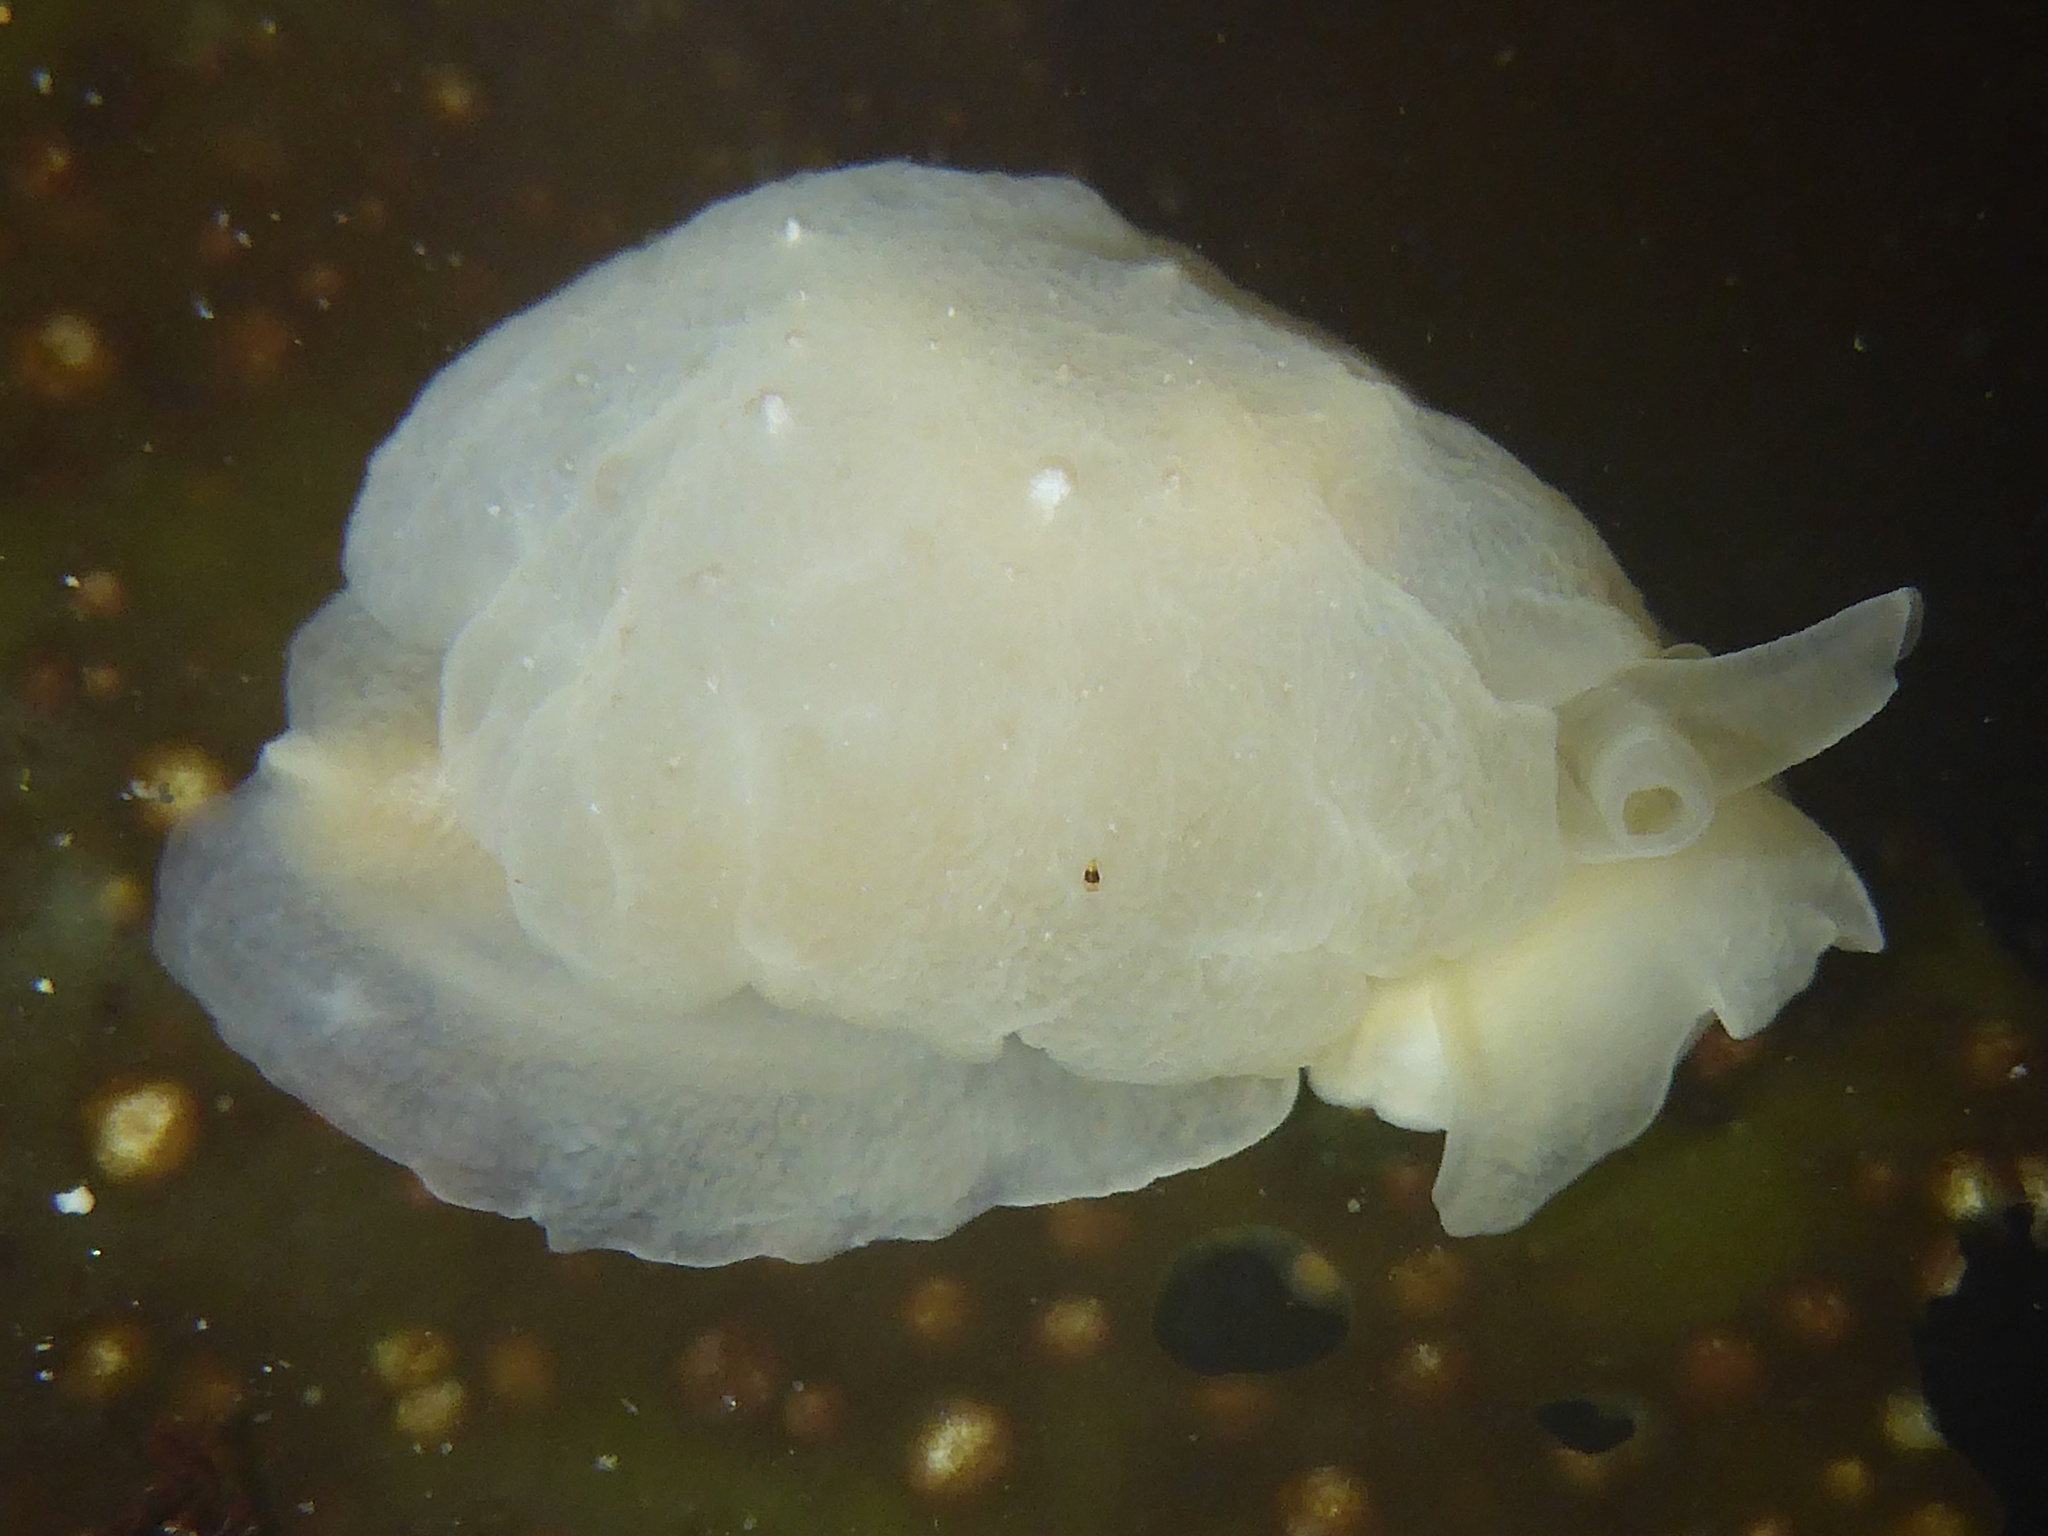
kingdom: Animalia
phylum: Mollusca
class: Gastropoda
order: Pleurobranchida
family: Pleurobranchidae
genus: Pleurehdera
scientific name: Pleurehdera
